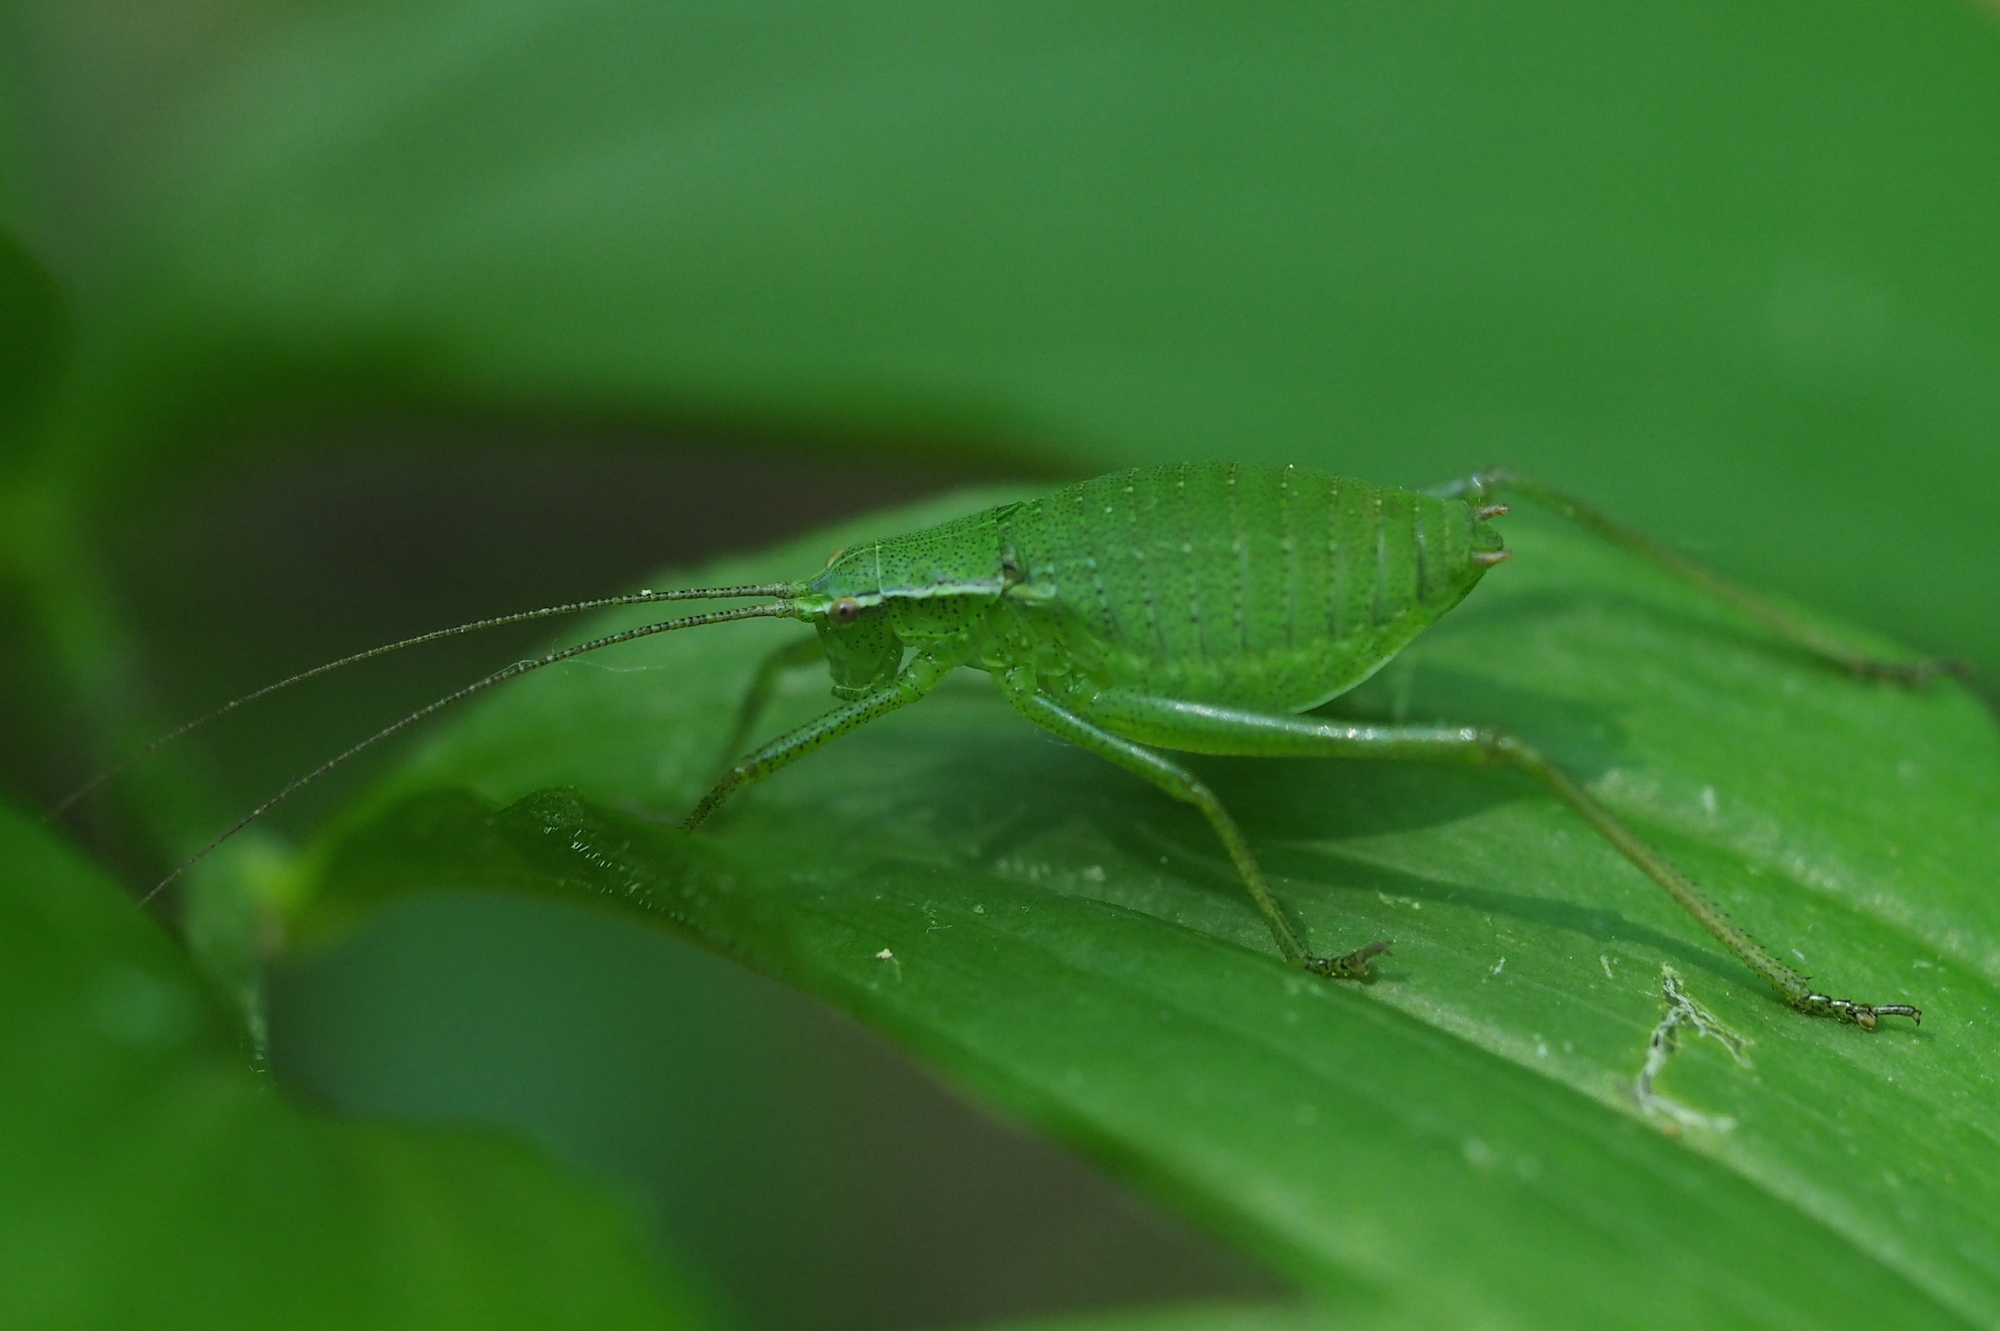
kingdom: Animalia
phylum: Arthropoda
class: Insecta
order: Orthoptera
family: Tettigoniidae
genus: Isophya
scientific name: Isophya pienensis
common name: Pieninsky' plump bush-cricket
